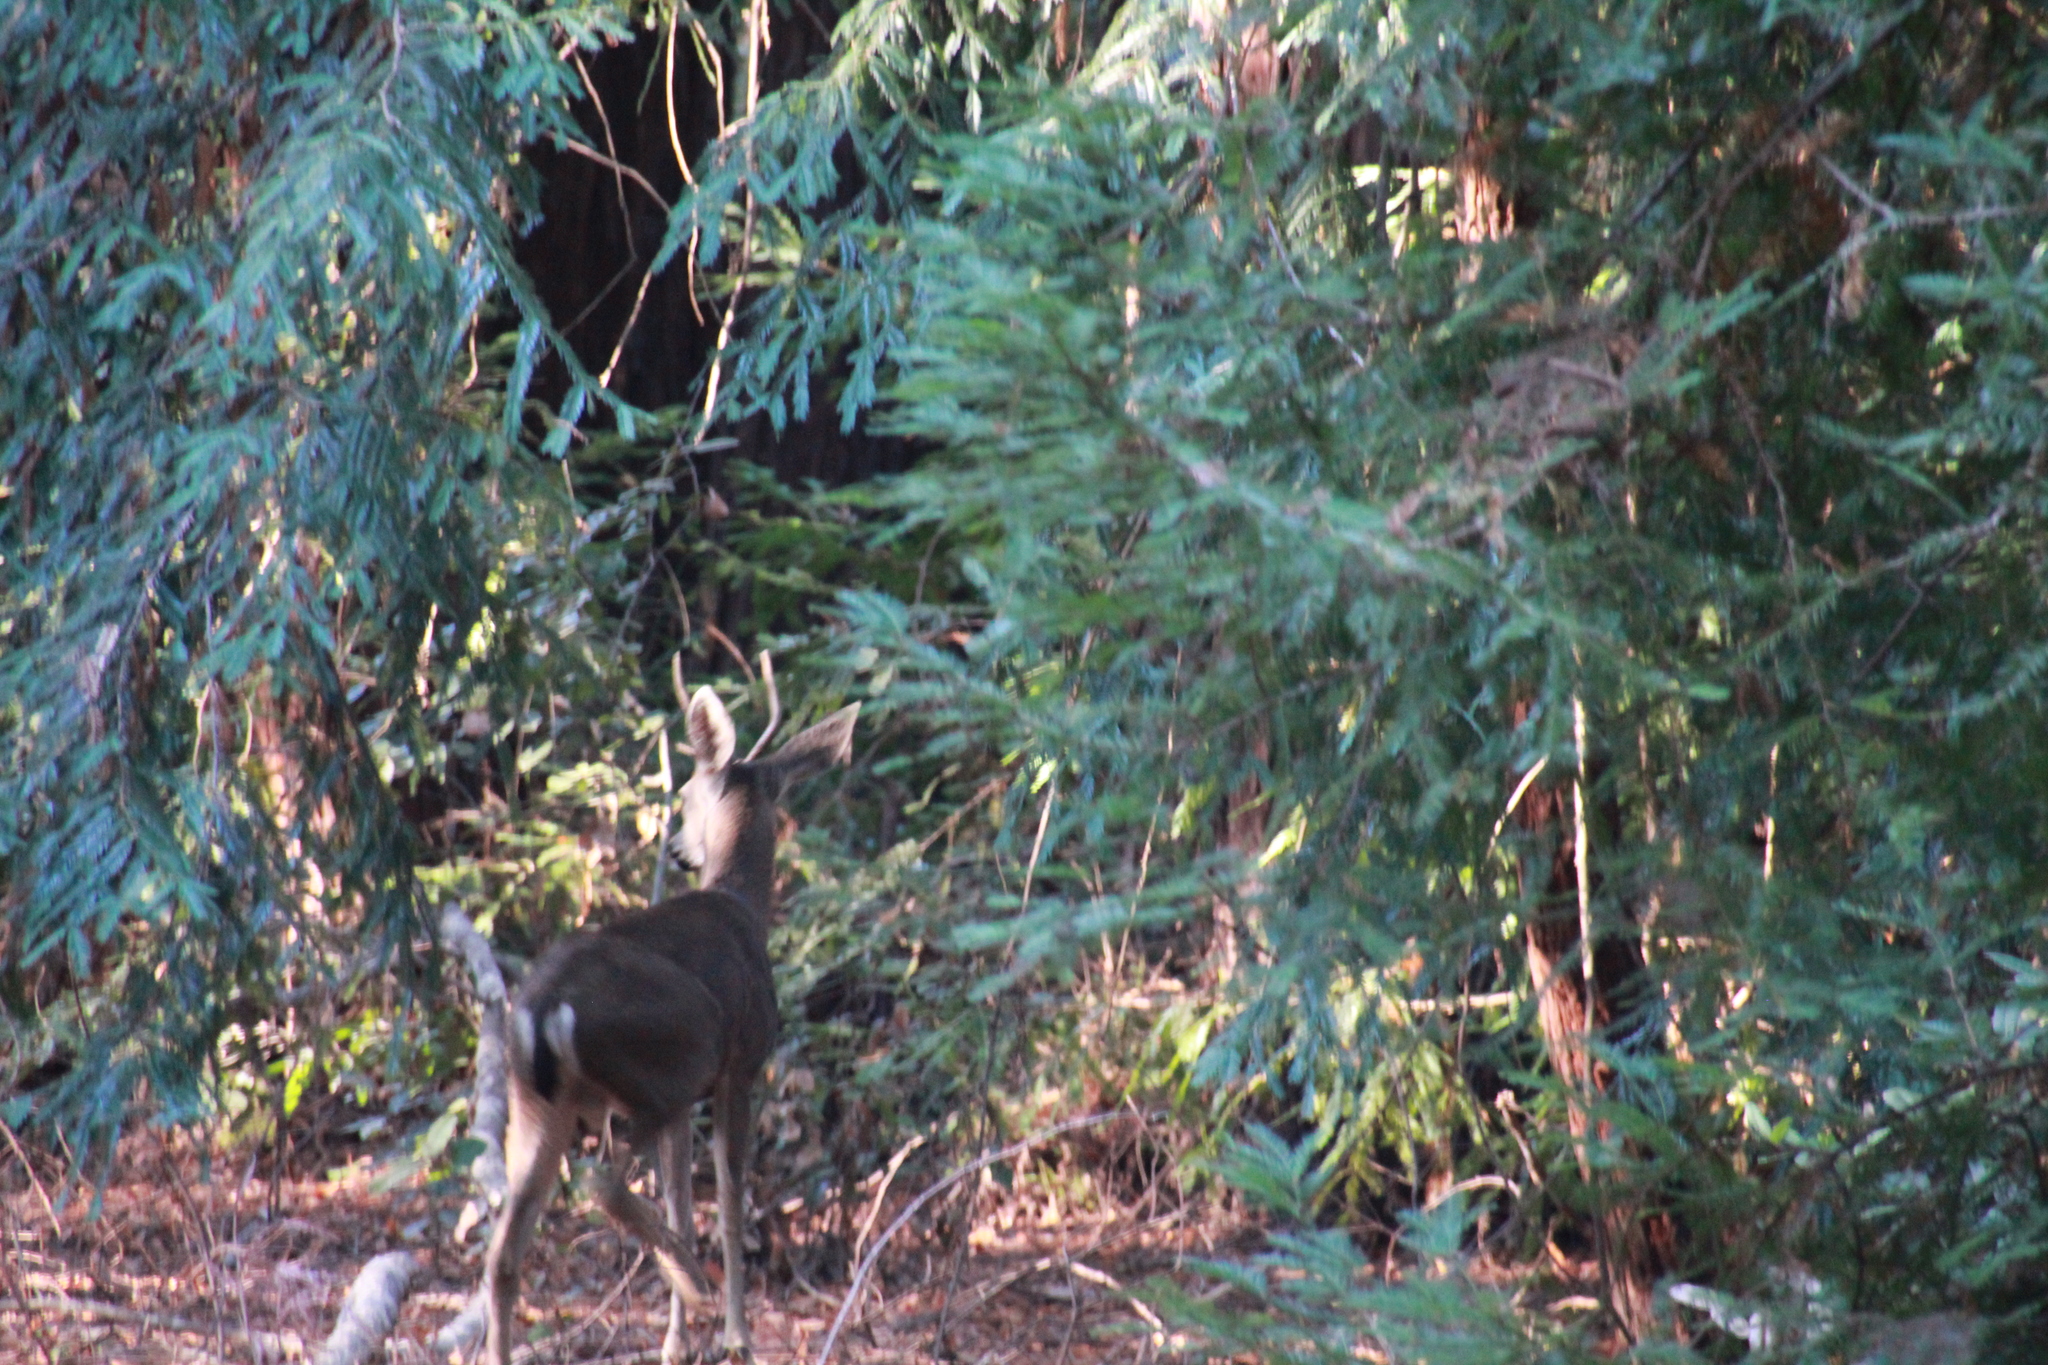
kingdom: Animalia
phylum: Chordata
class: Mammalia
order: Artiodactyla
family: Cervidae
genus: Odocoileus
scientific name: Odocoileus hemionus
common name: Mule deer
